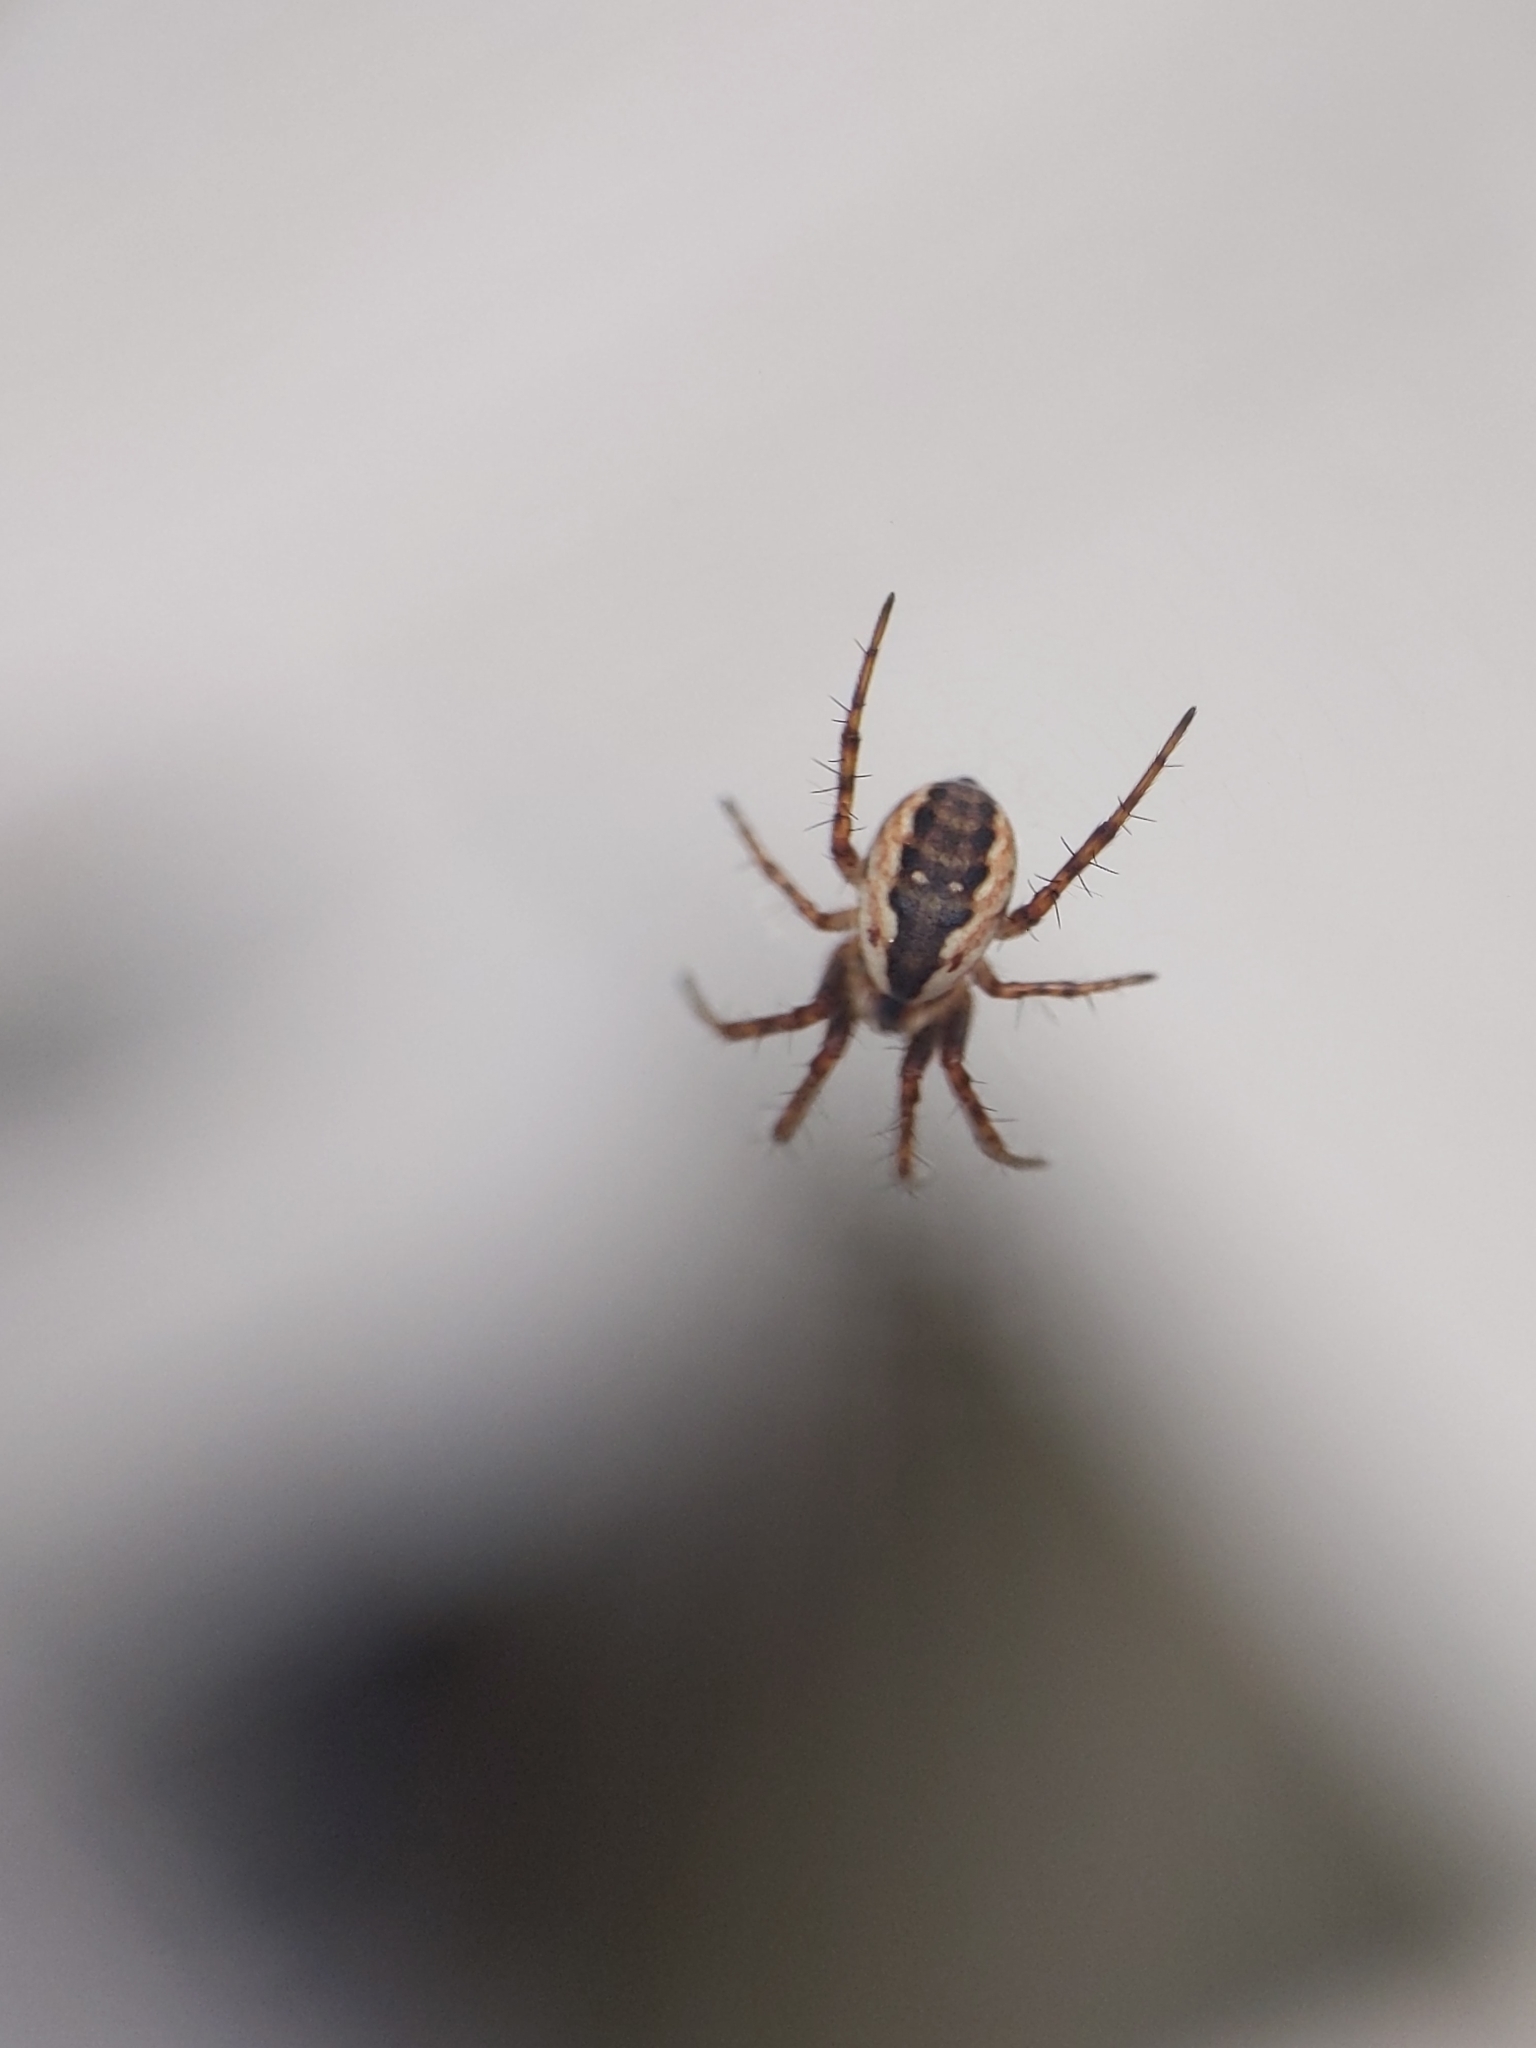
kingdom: Animalia
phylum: Arthropoda
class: Arachnida
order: Araneae
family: Araneidae
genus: Mangora
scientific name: Mangora placida
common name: Tuft-legged orbweaver
